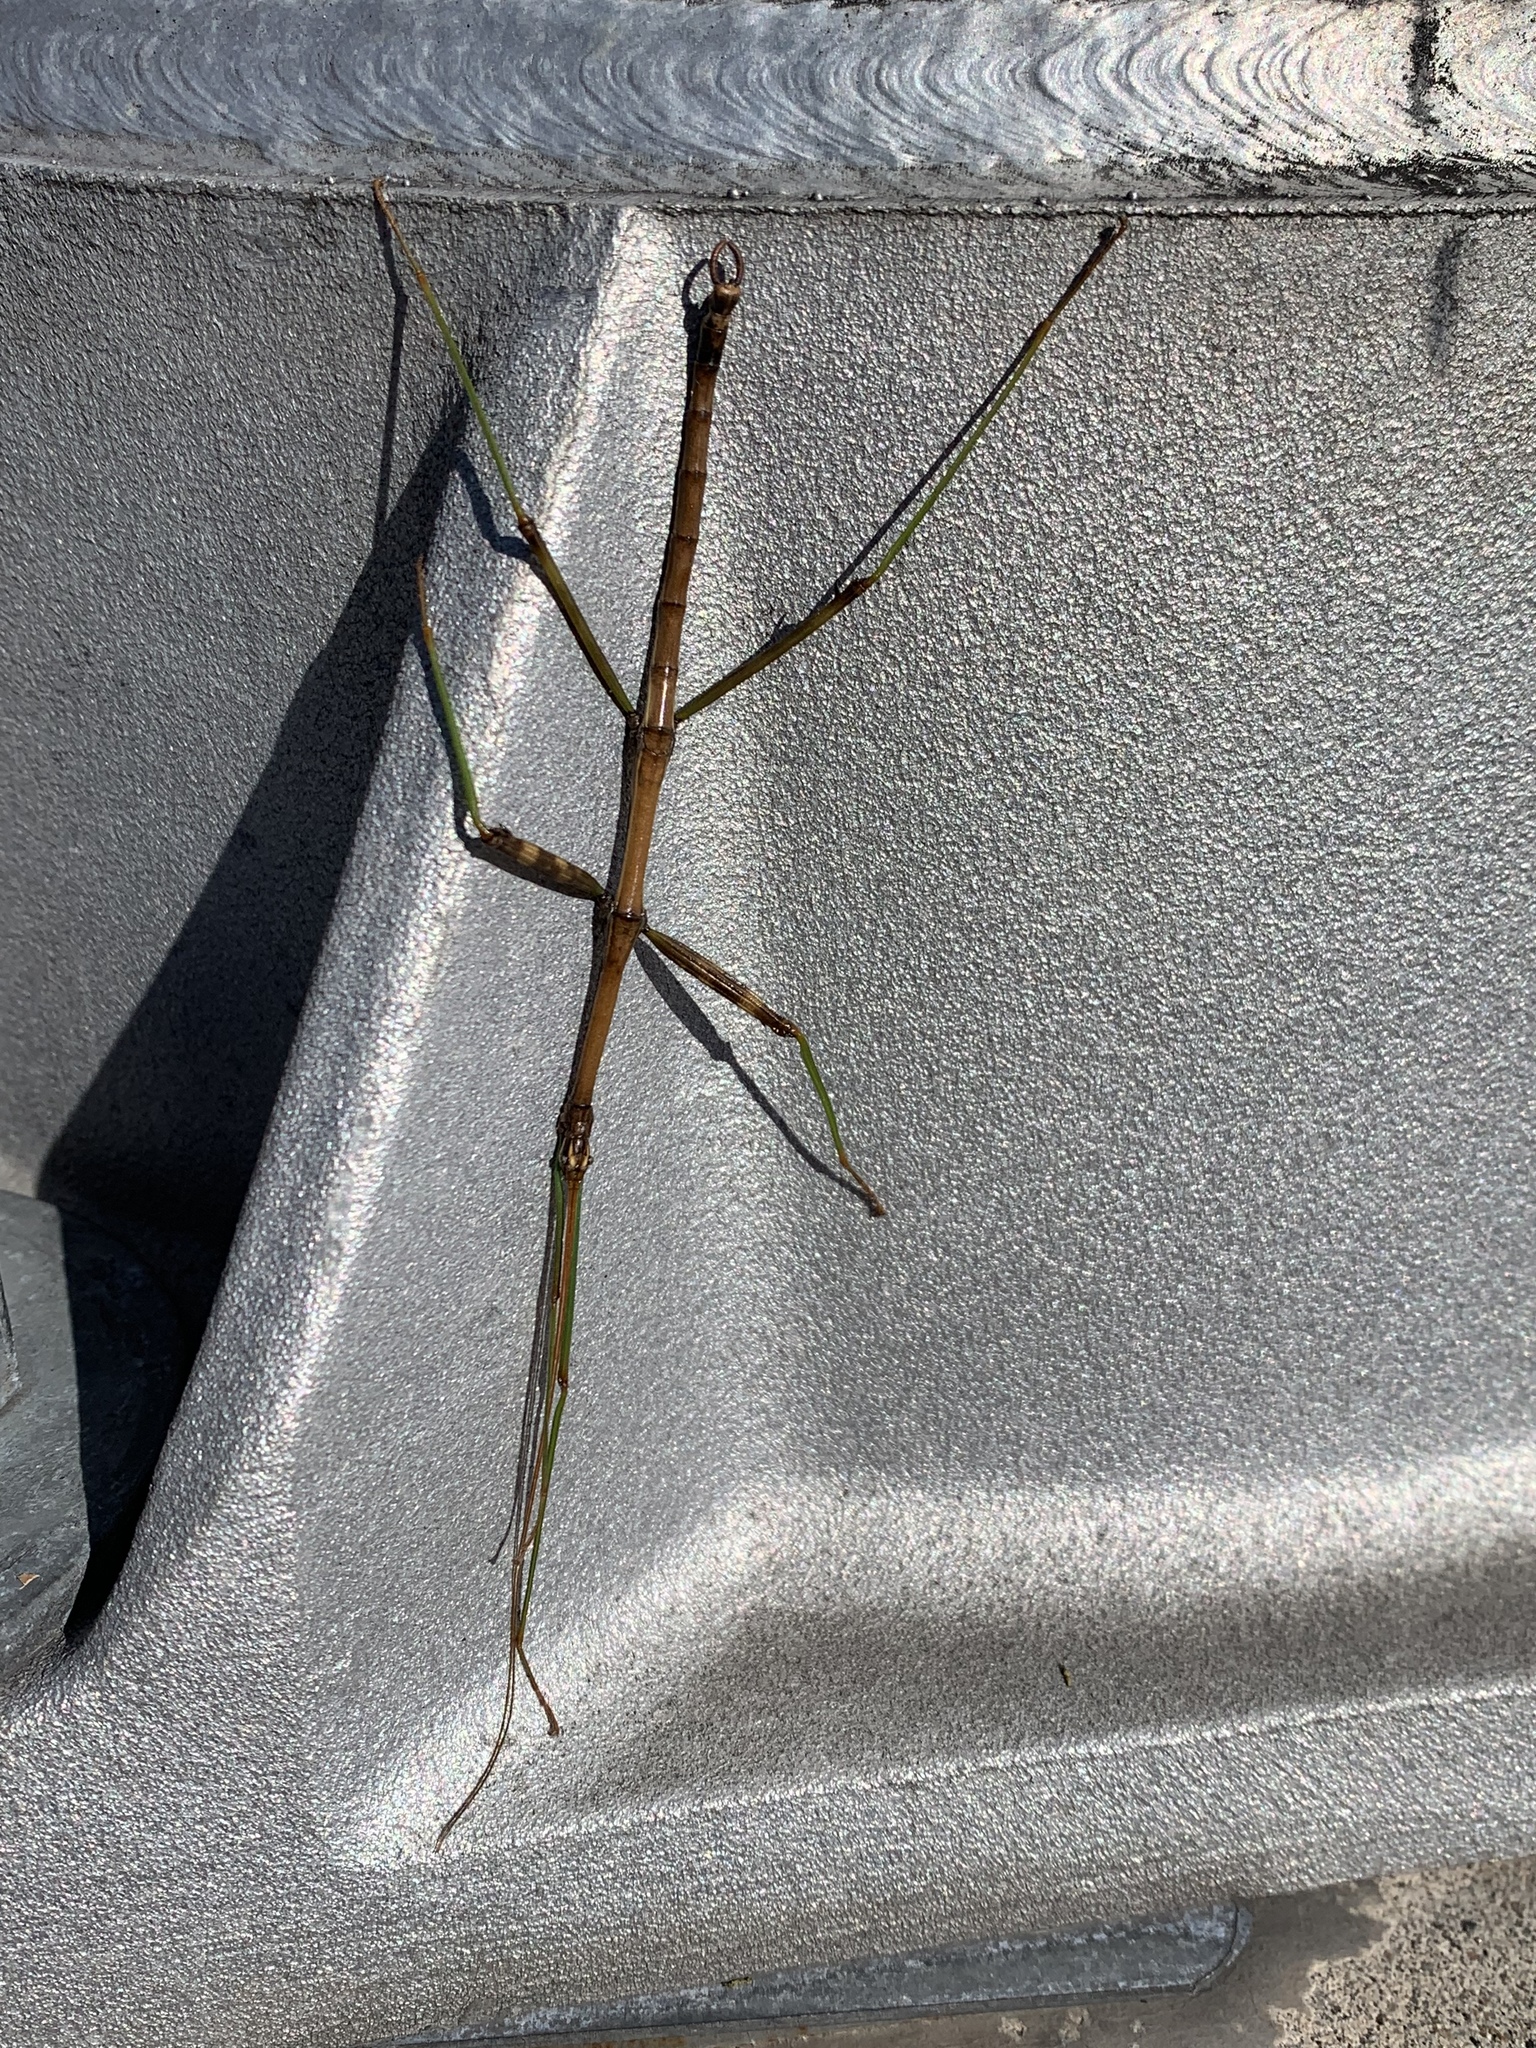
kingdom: Animalia
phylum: Arthropoda
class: Insecta
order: Phasmida
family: Diapheromeridae
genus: Diapheromera
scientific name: Diapheromera femorata
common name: Common american walkingstick
